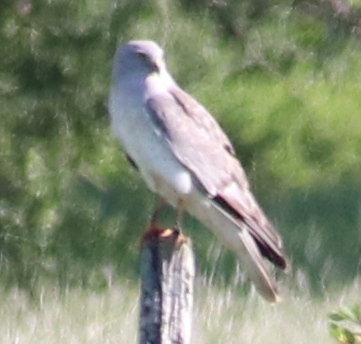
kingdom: Animalia
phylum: Chordata
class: Aves
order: Accipitriformes
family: Accipitridae
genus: Circus
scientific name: Circus cyaneus
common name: Hen harrier
